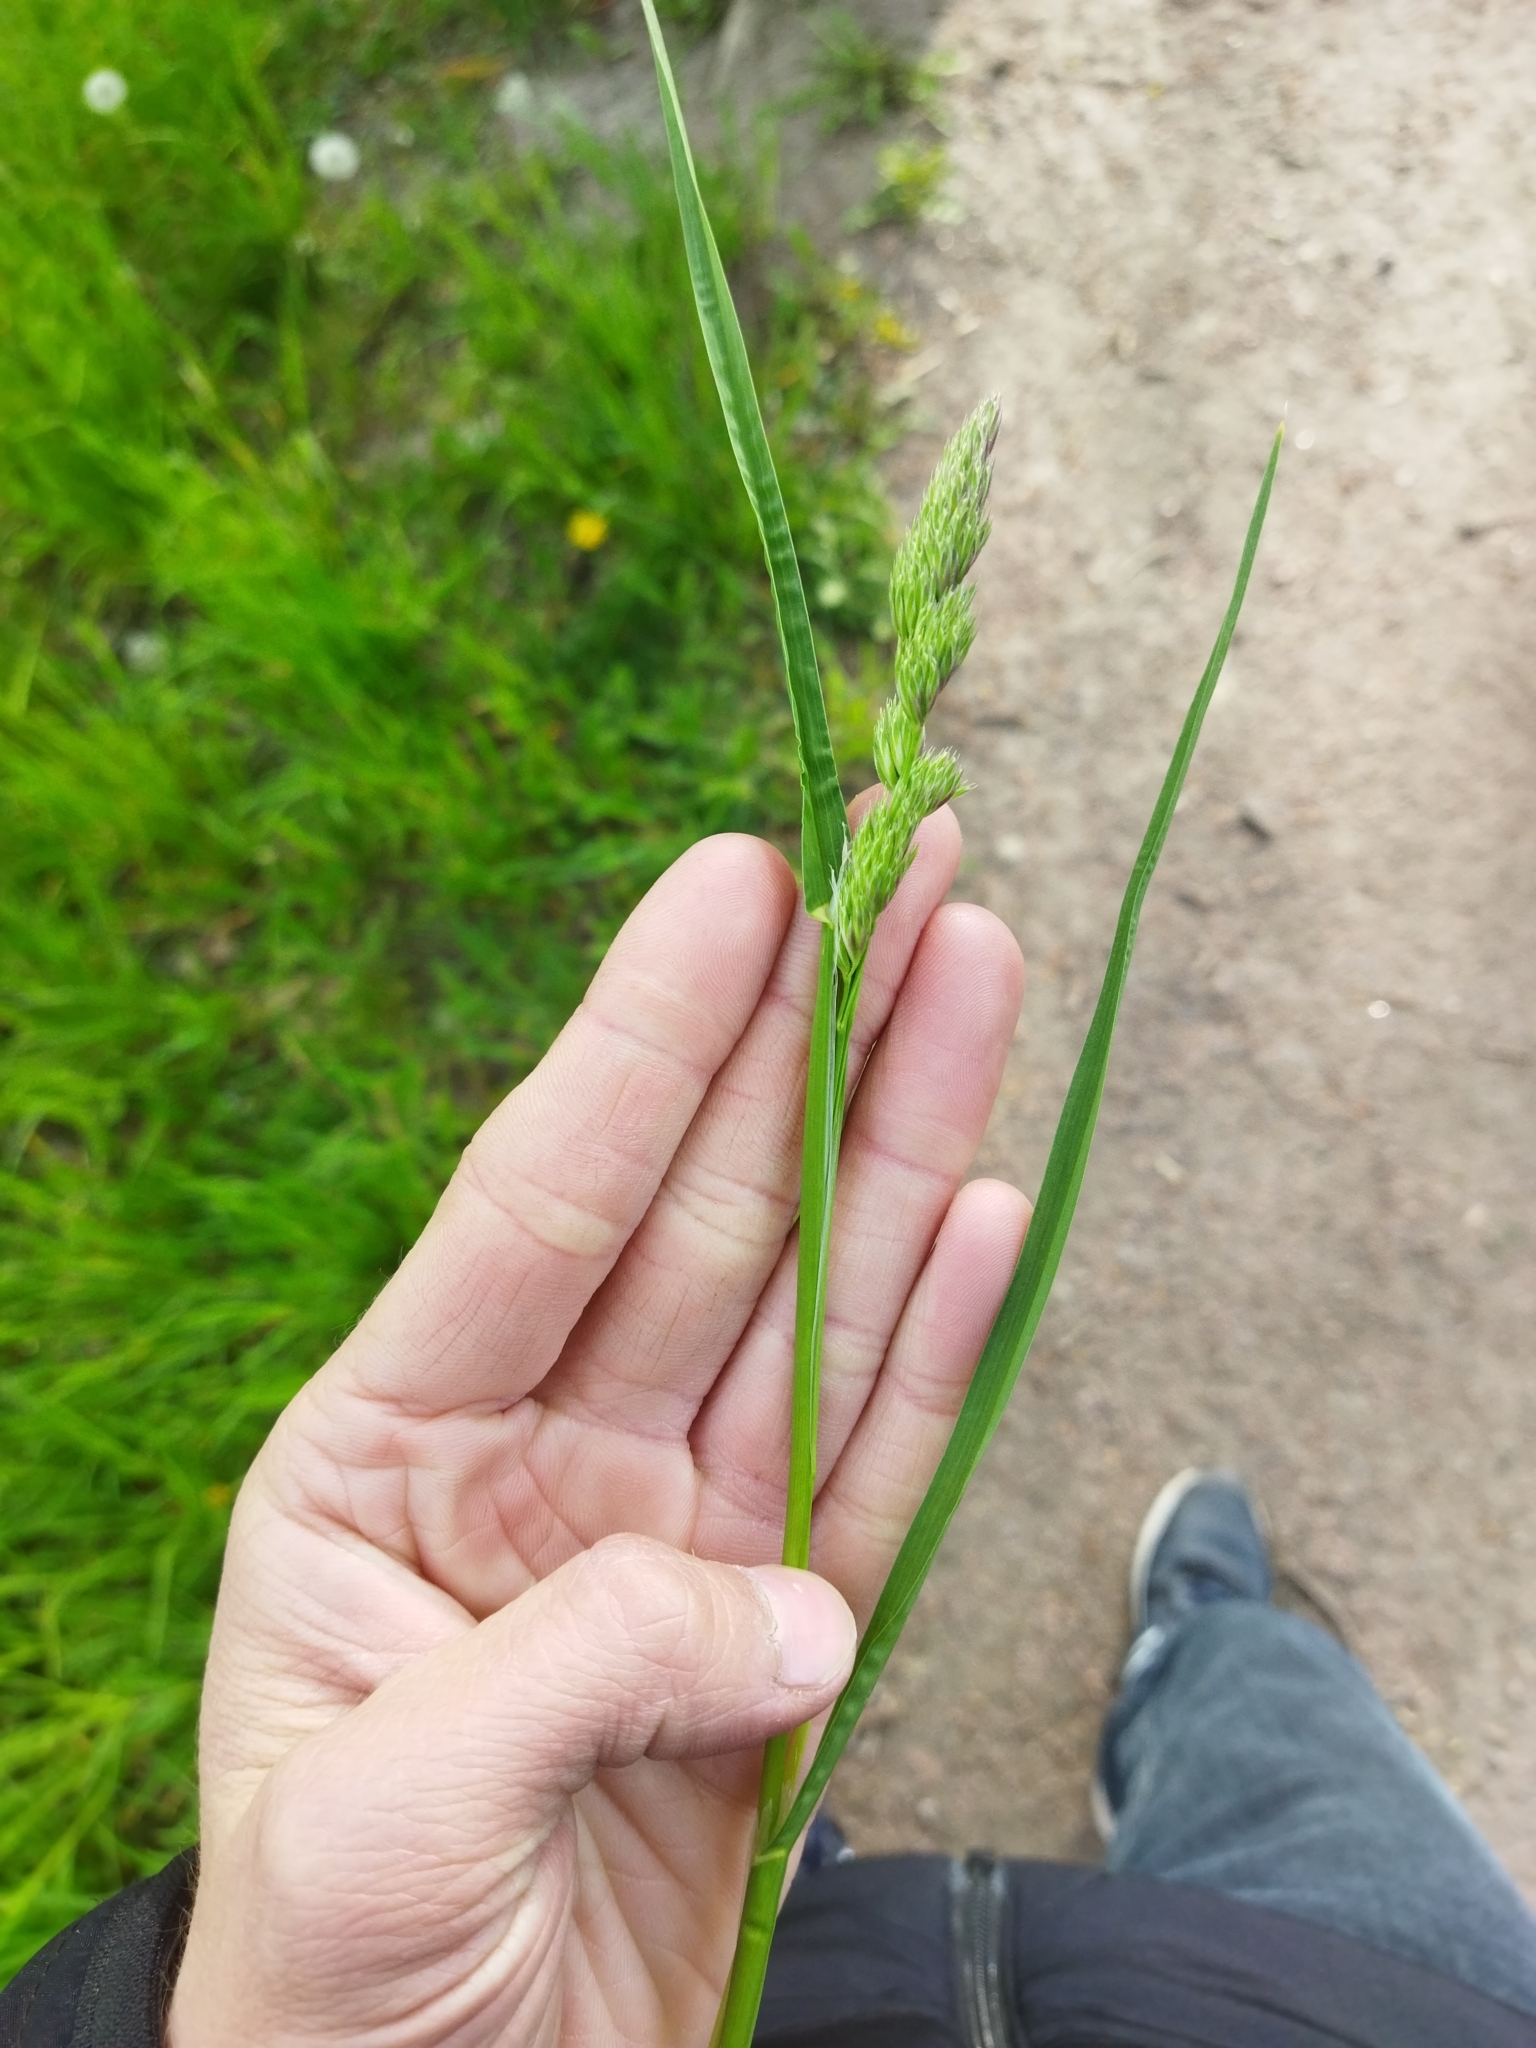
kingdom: Plantae
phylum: Tracheophyta
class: Liliopsida
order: Poales
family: Poaceae
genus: Dactylis
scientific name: Dactylis glomerata
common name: Orchardgrass
